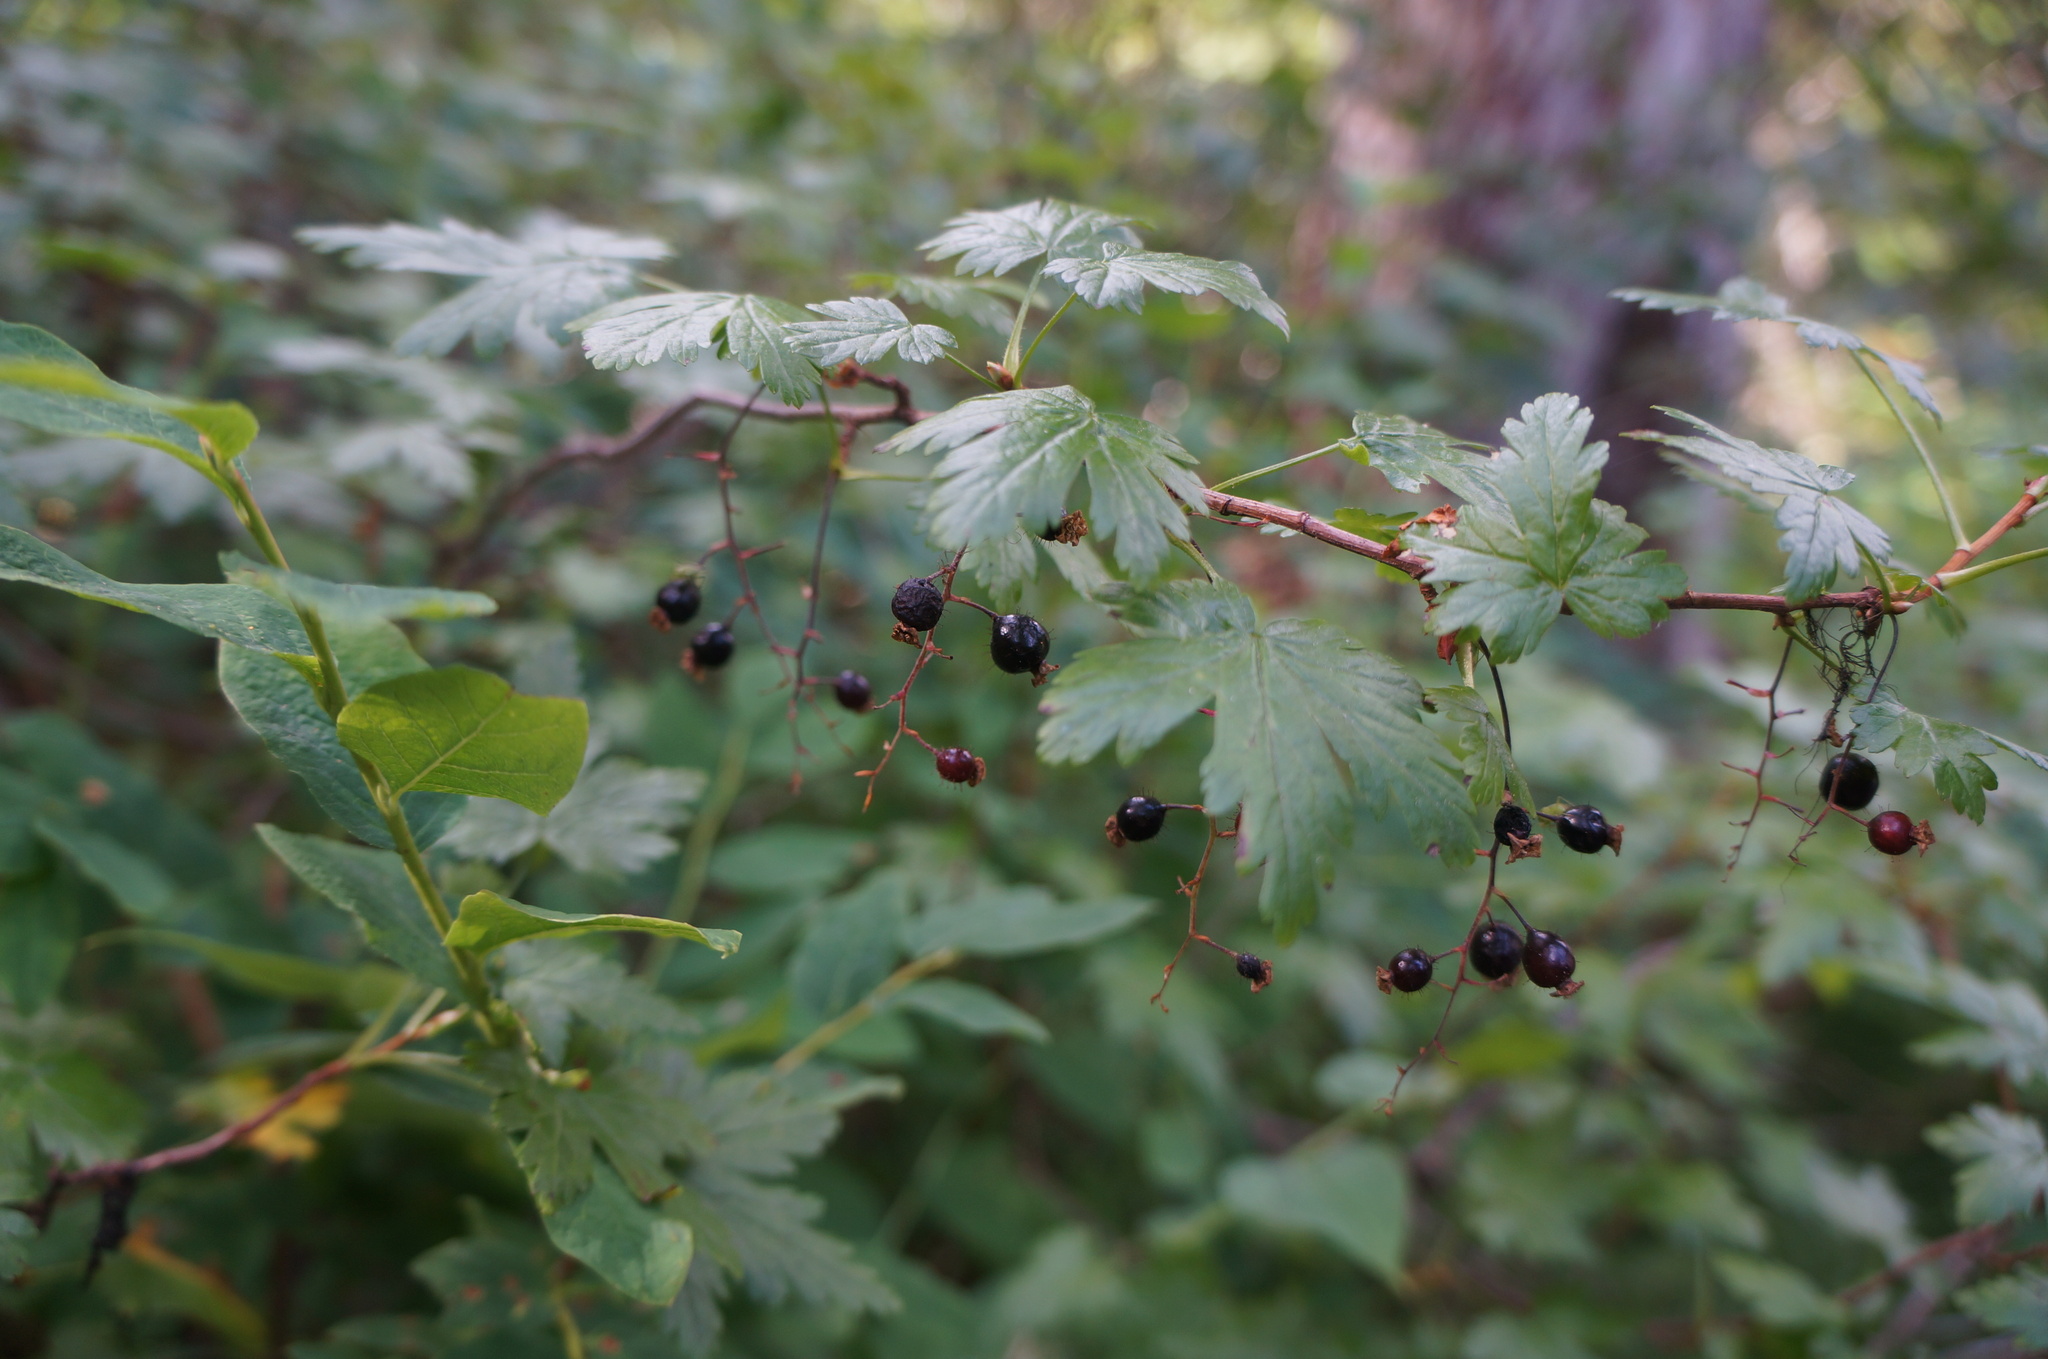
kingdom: Plantae
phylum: Tracheophyta
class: Magnoliopsida
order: Saxifragales
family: Grossulariaceae
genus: Ribes
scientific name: Ribes lacustre
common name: Black gooseberry
